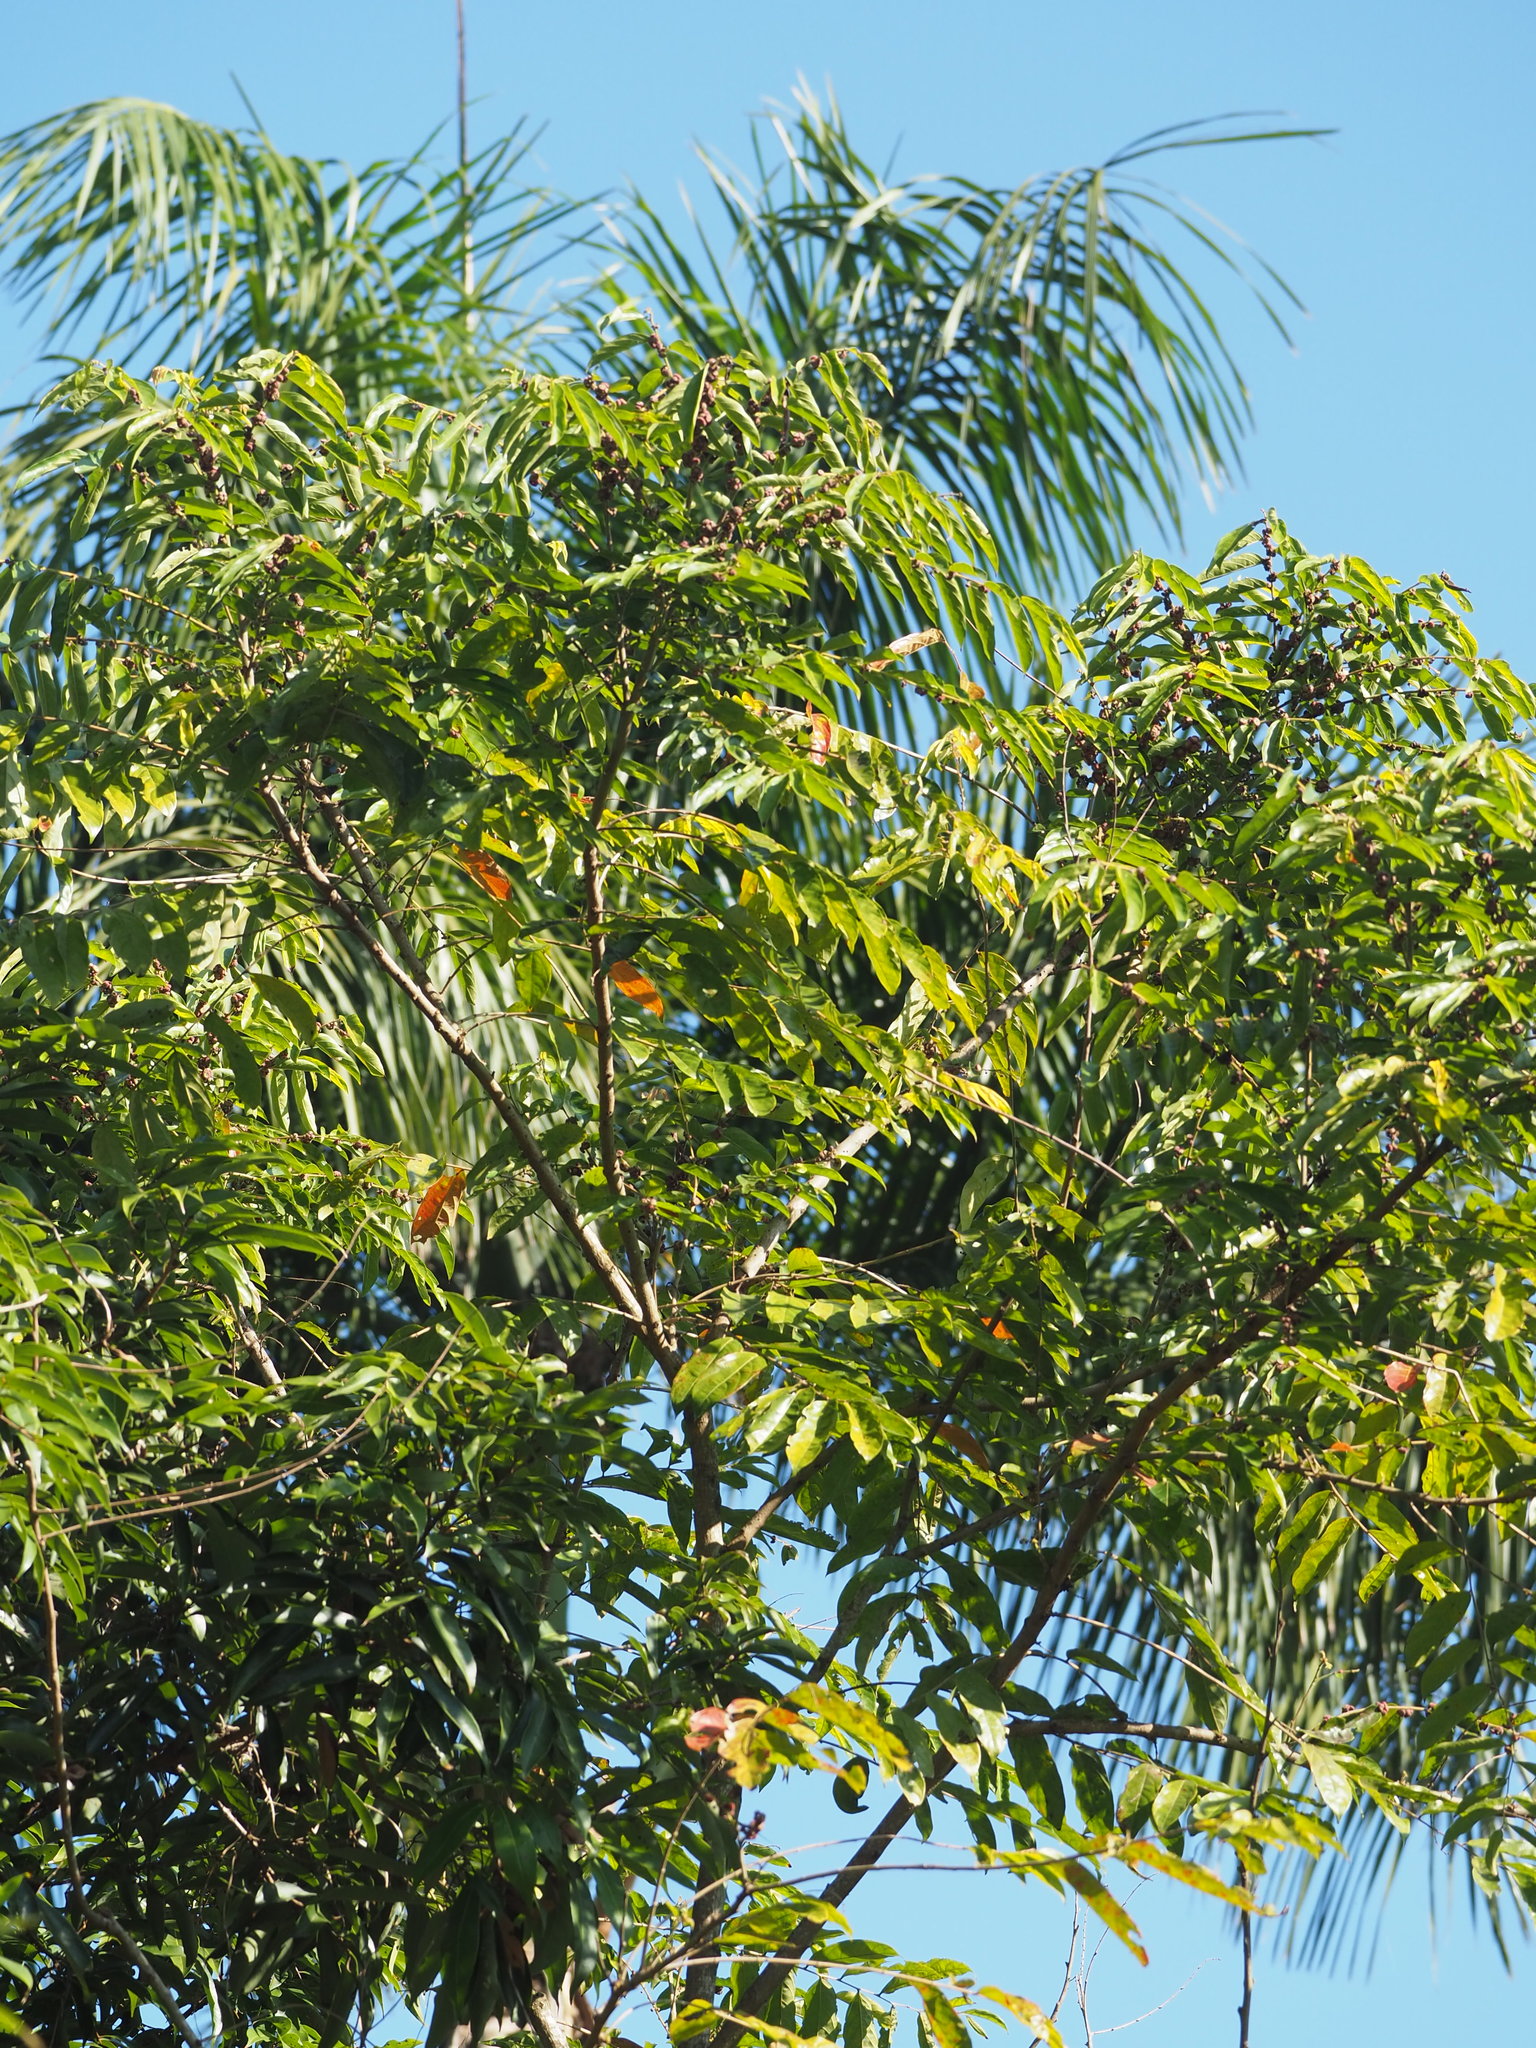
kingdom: Plantae
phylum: Tracheophyta
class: Magnoliopsida
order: Malpighiales
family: Phyllanthaceae
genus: Glochidion
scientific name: Glochidion philippicum
